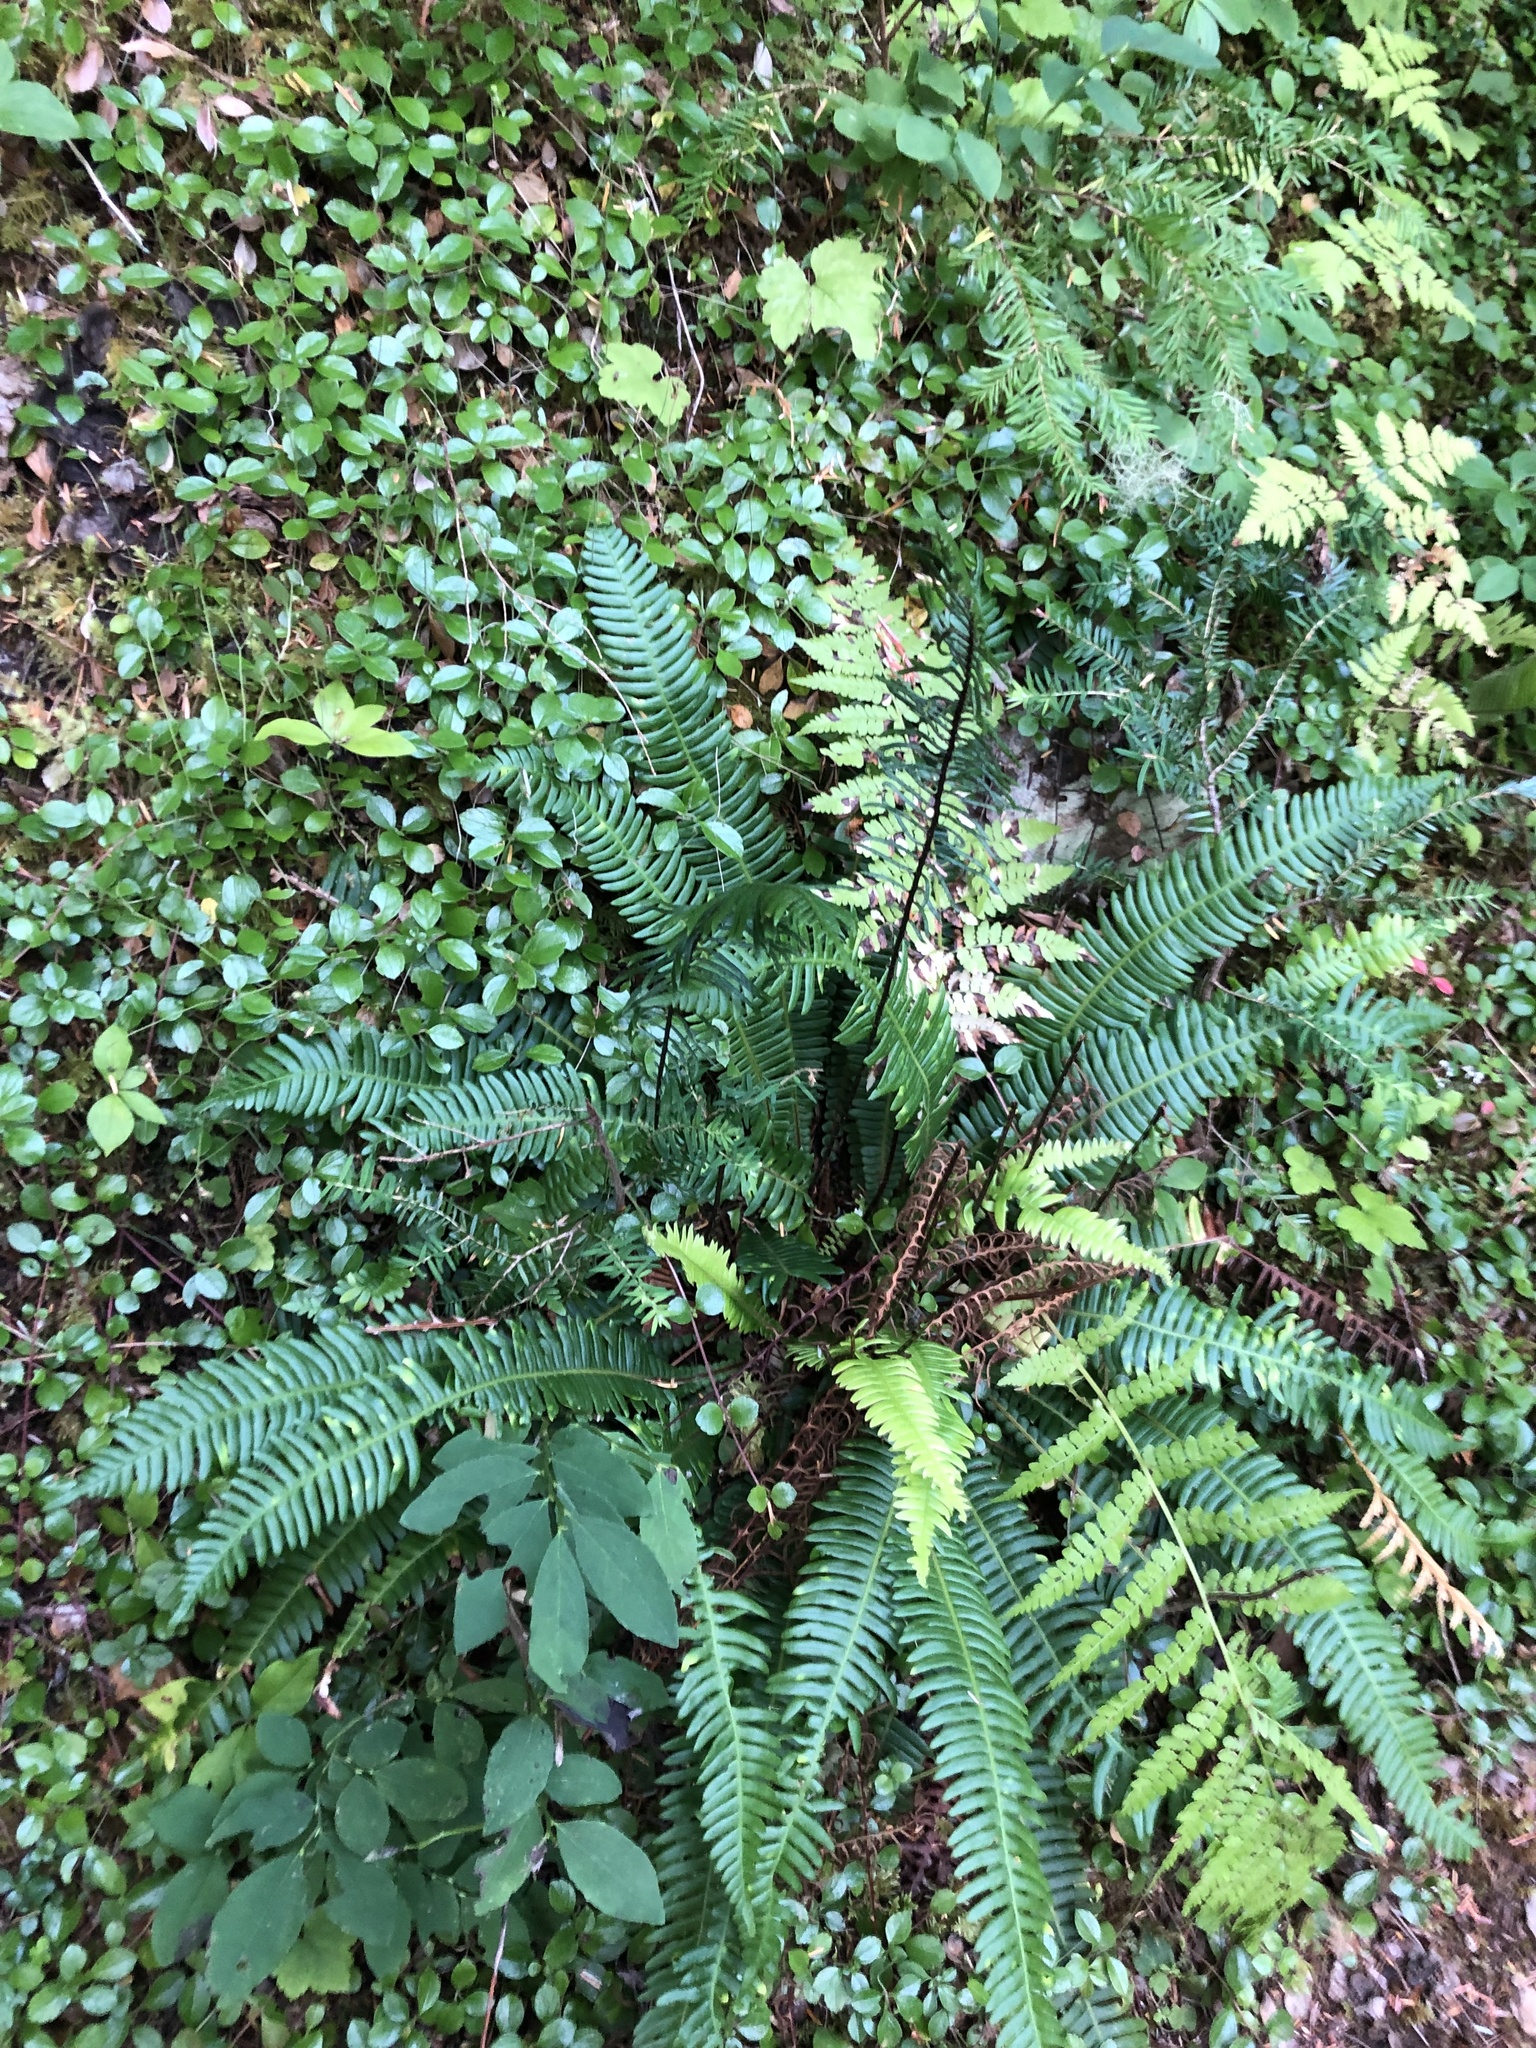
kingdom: Plantae
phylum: Tracheophyta
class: Polypodiopsida
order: Polypodiales
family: Blechnaceae
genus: Struthiopteris
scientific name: Struthiopteris spicant
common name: Deer fern
